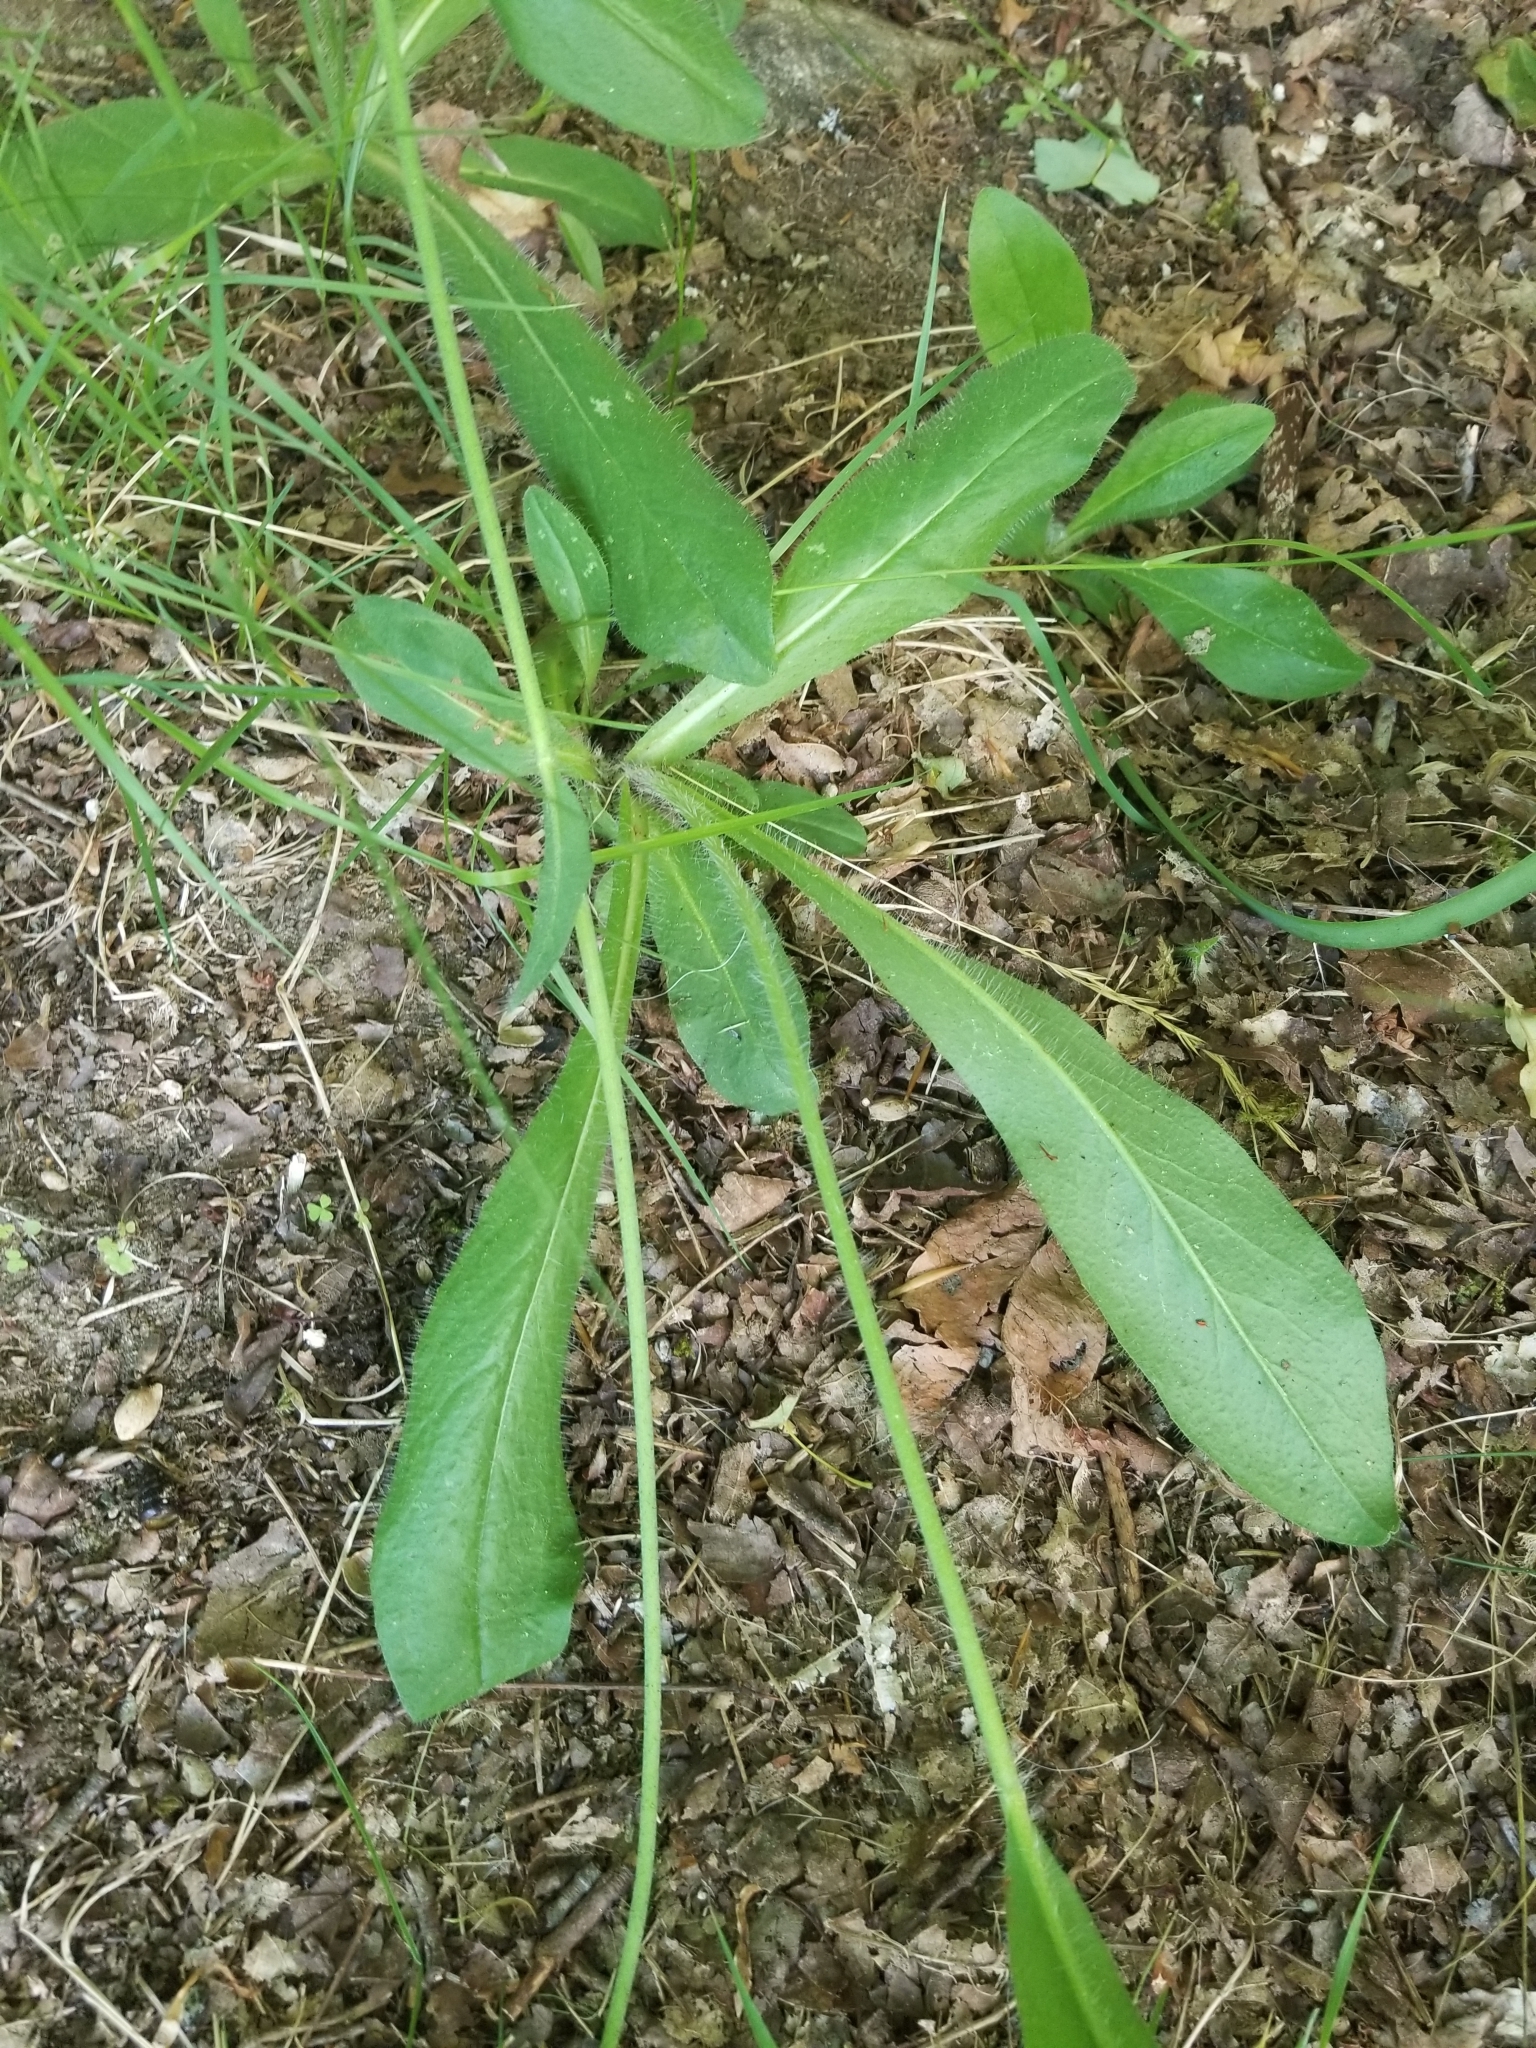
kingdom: Plantae
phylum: Tracheophyta
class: Magnoliopsida
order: Asterales
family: Asteraceae
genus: Pilosella
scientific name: Pilosella aurantiaca
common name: Fox-and-cubs
